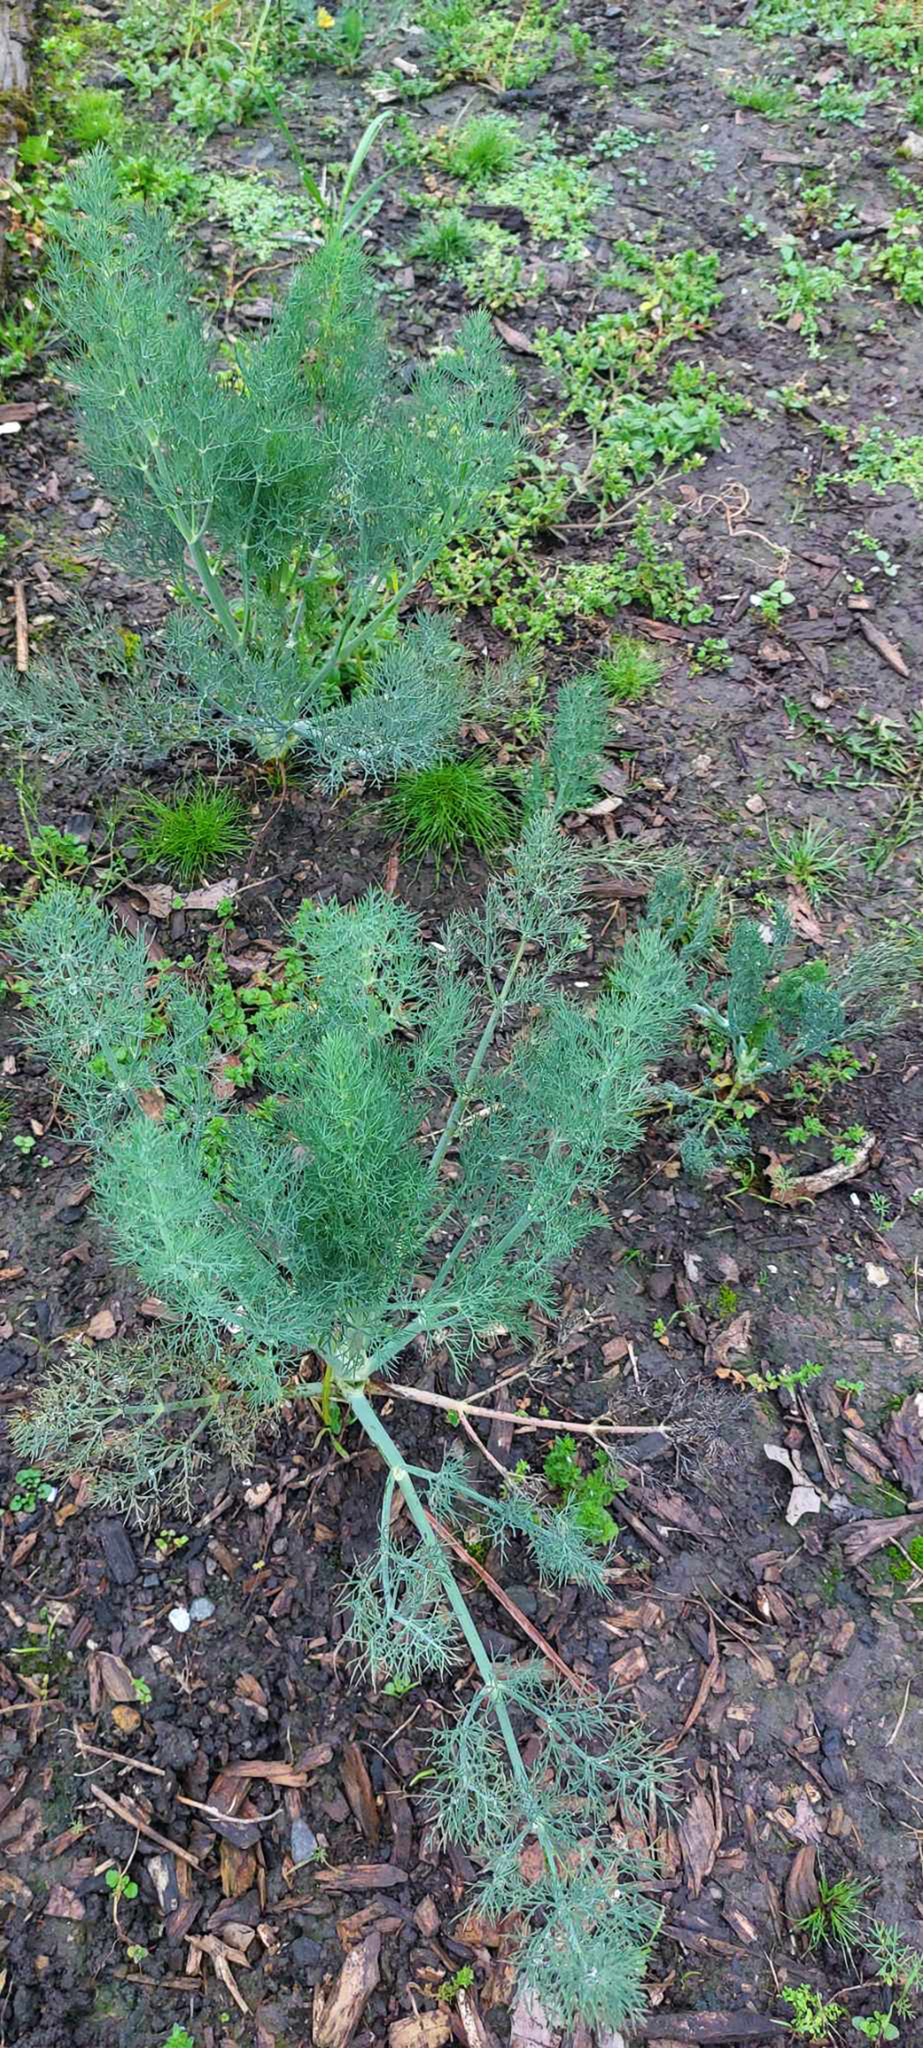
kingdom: Plantae
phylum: Tracheophyta
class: Magnoliopsida
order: Apiales
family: Apiaceae
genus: Anethum
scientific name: Anethum graveolens
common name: Dill
